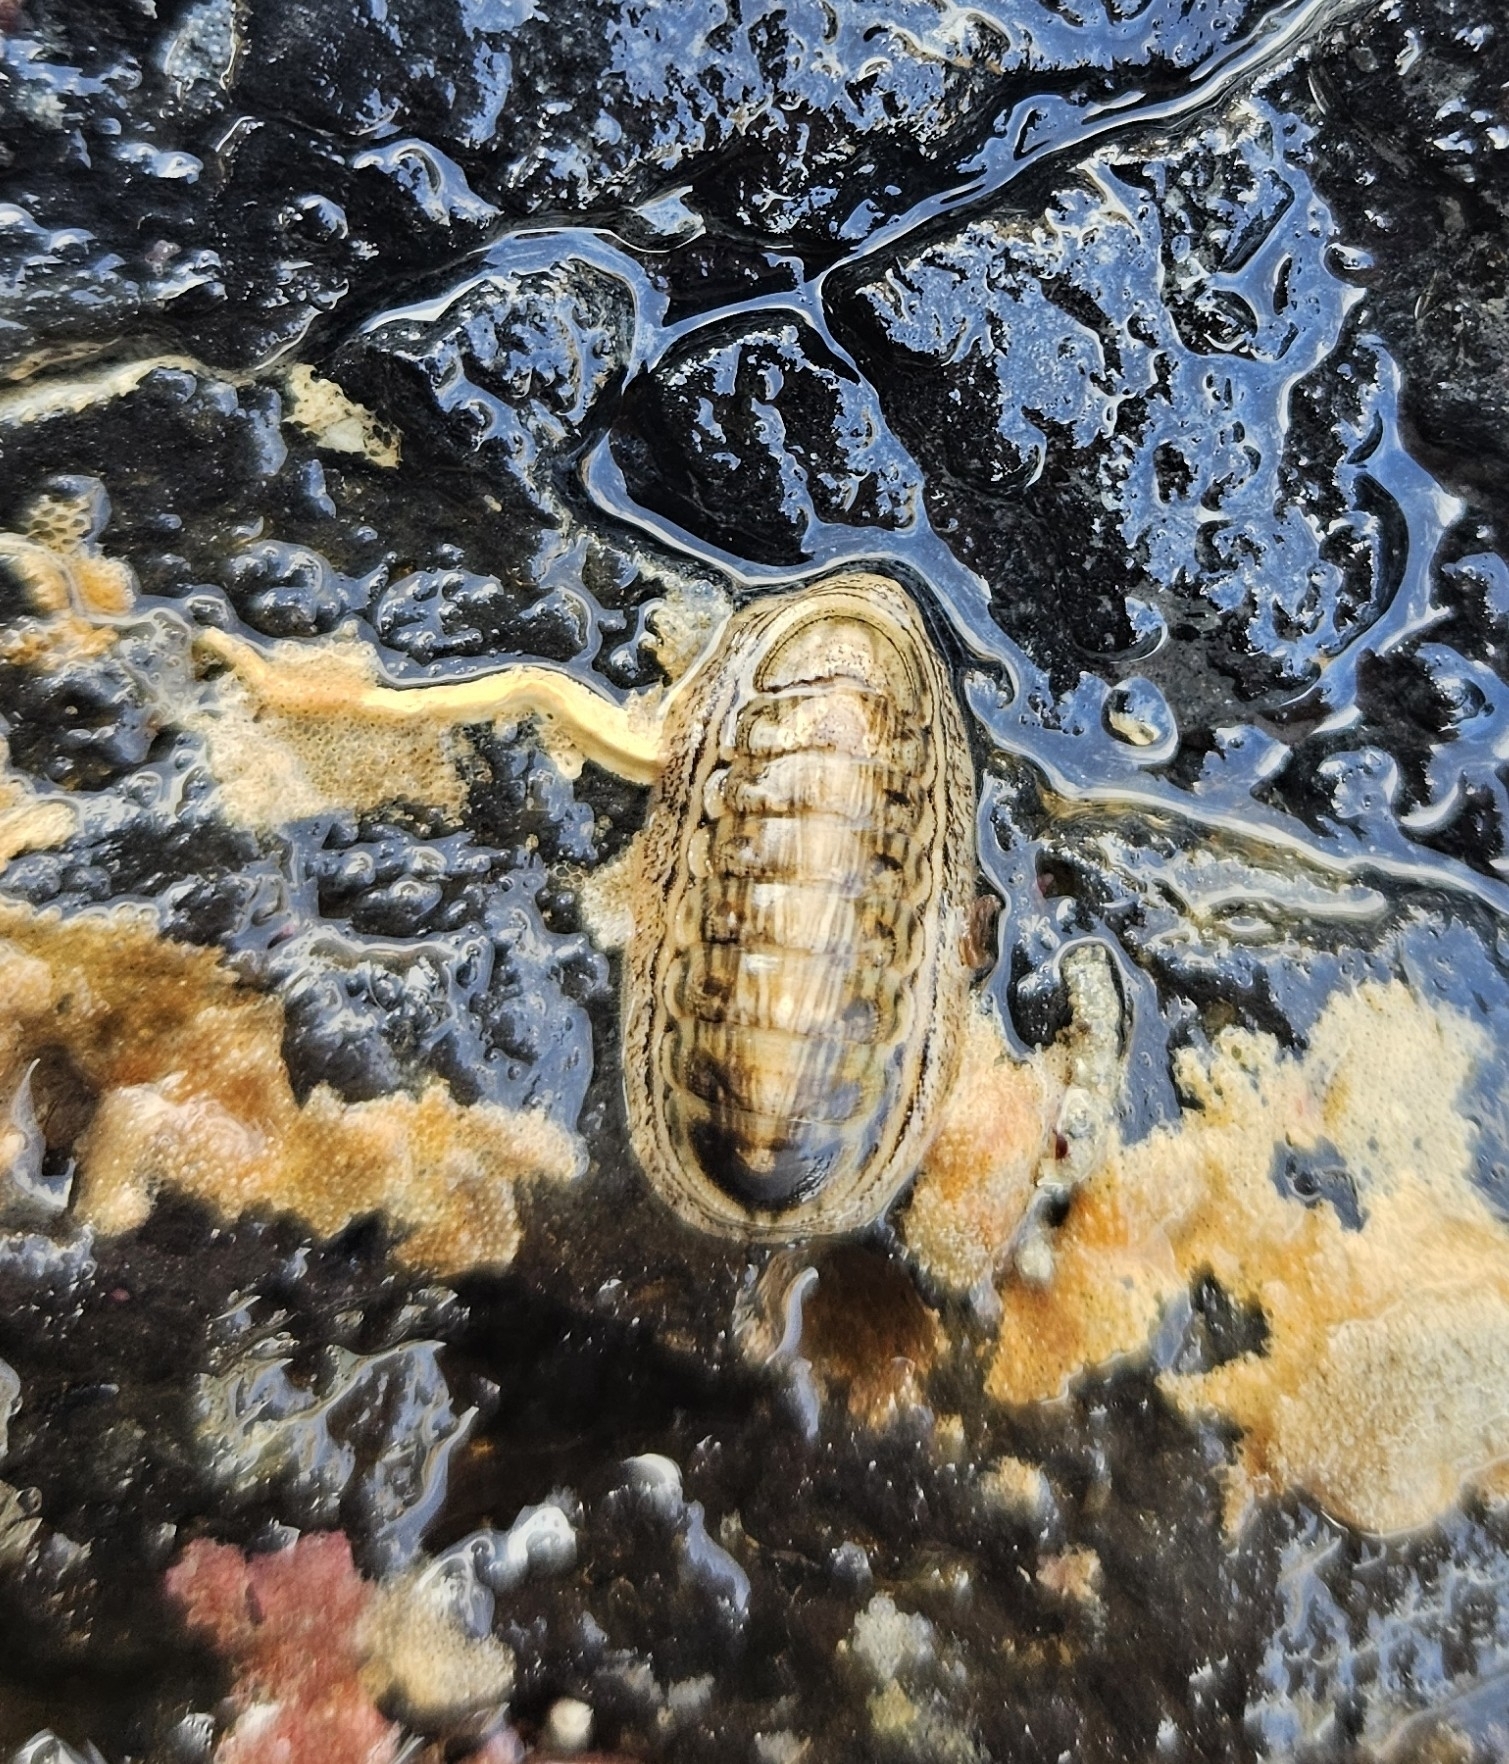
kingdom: Animalia
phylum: Mollusca
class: Polyplacophora
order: Chitonida
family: Ischnochitonidae
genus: Ischnochiton
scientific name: Ischnochiton maorianus
